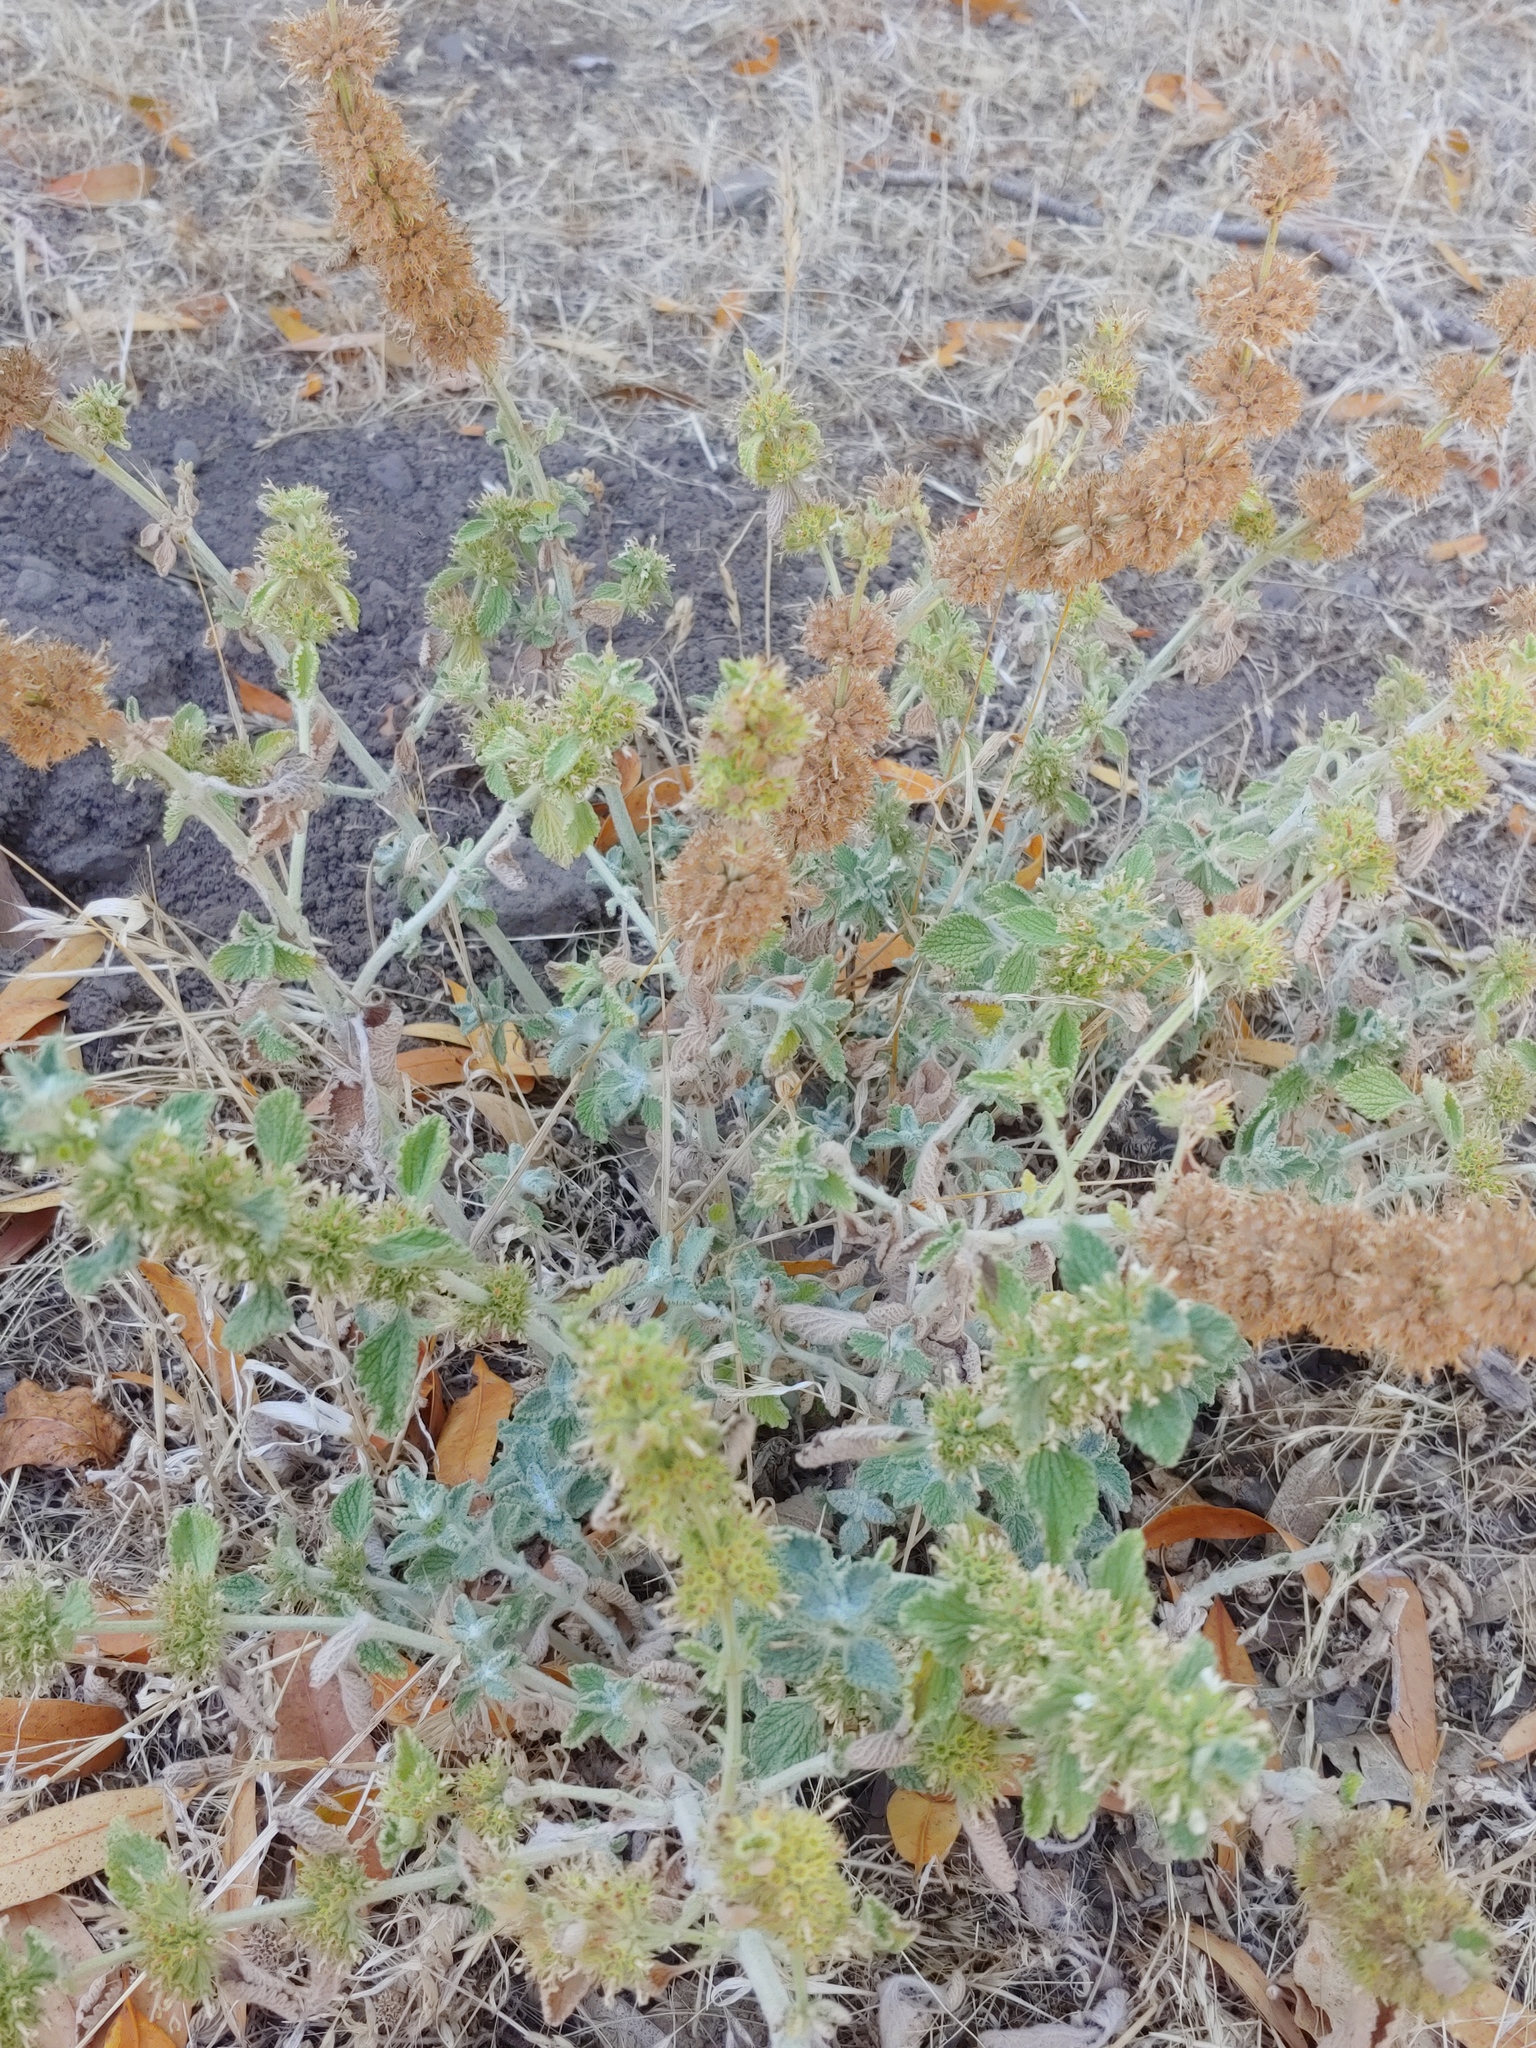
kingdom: Plantae
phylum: Tracheophyta
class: Magnoliopsida
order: Lamiales
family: Lamiaceae
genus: Marrubium
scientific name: Marrubium vulgare
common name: Horehound
